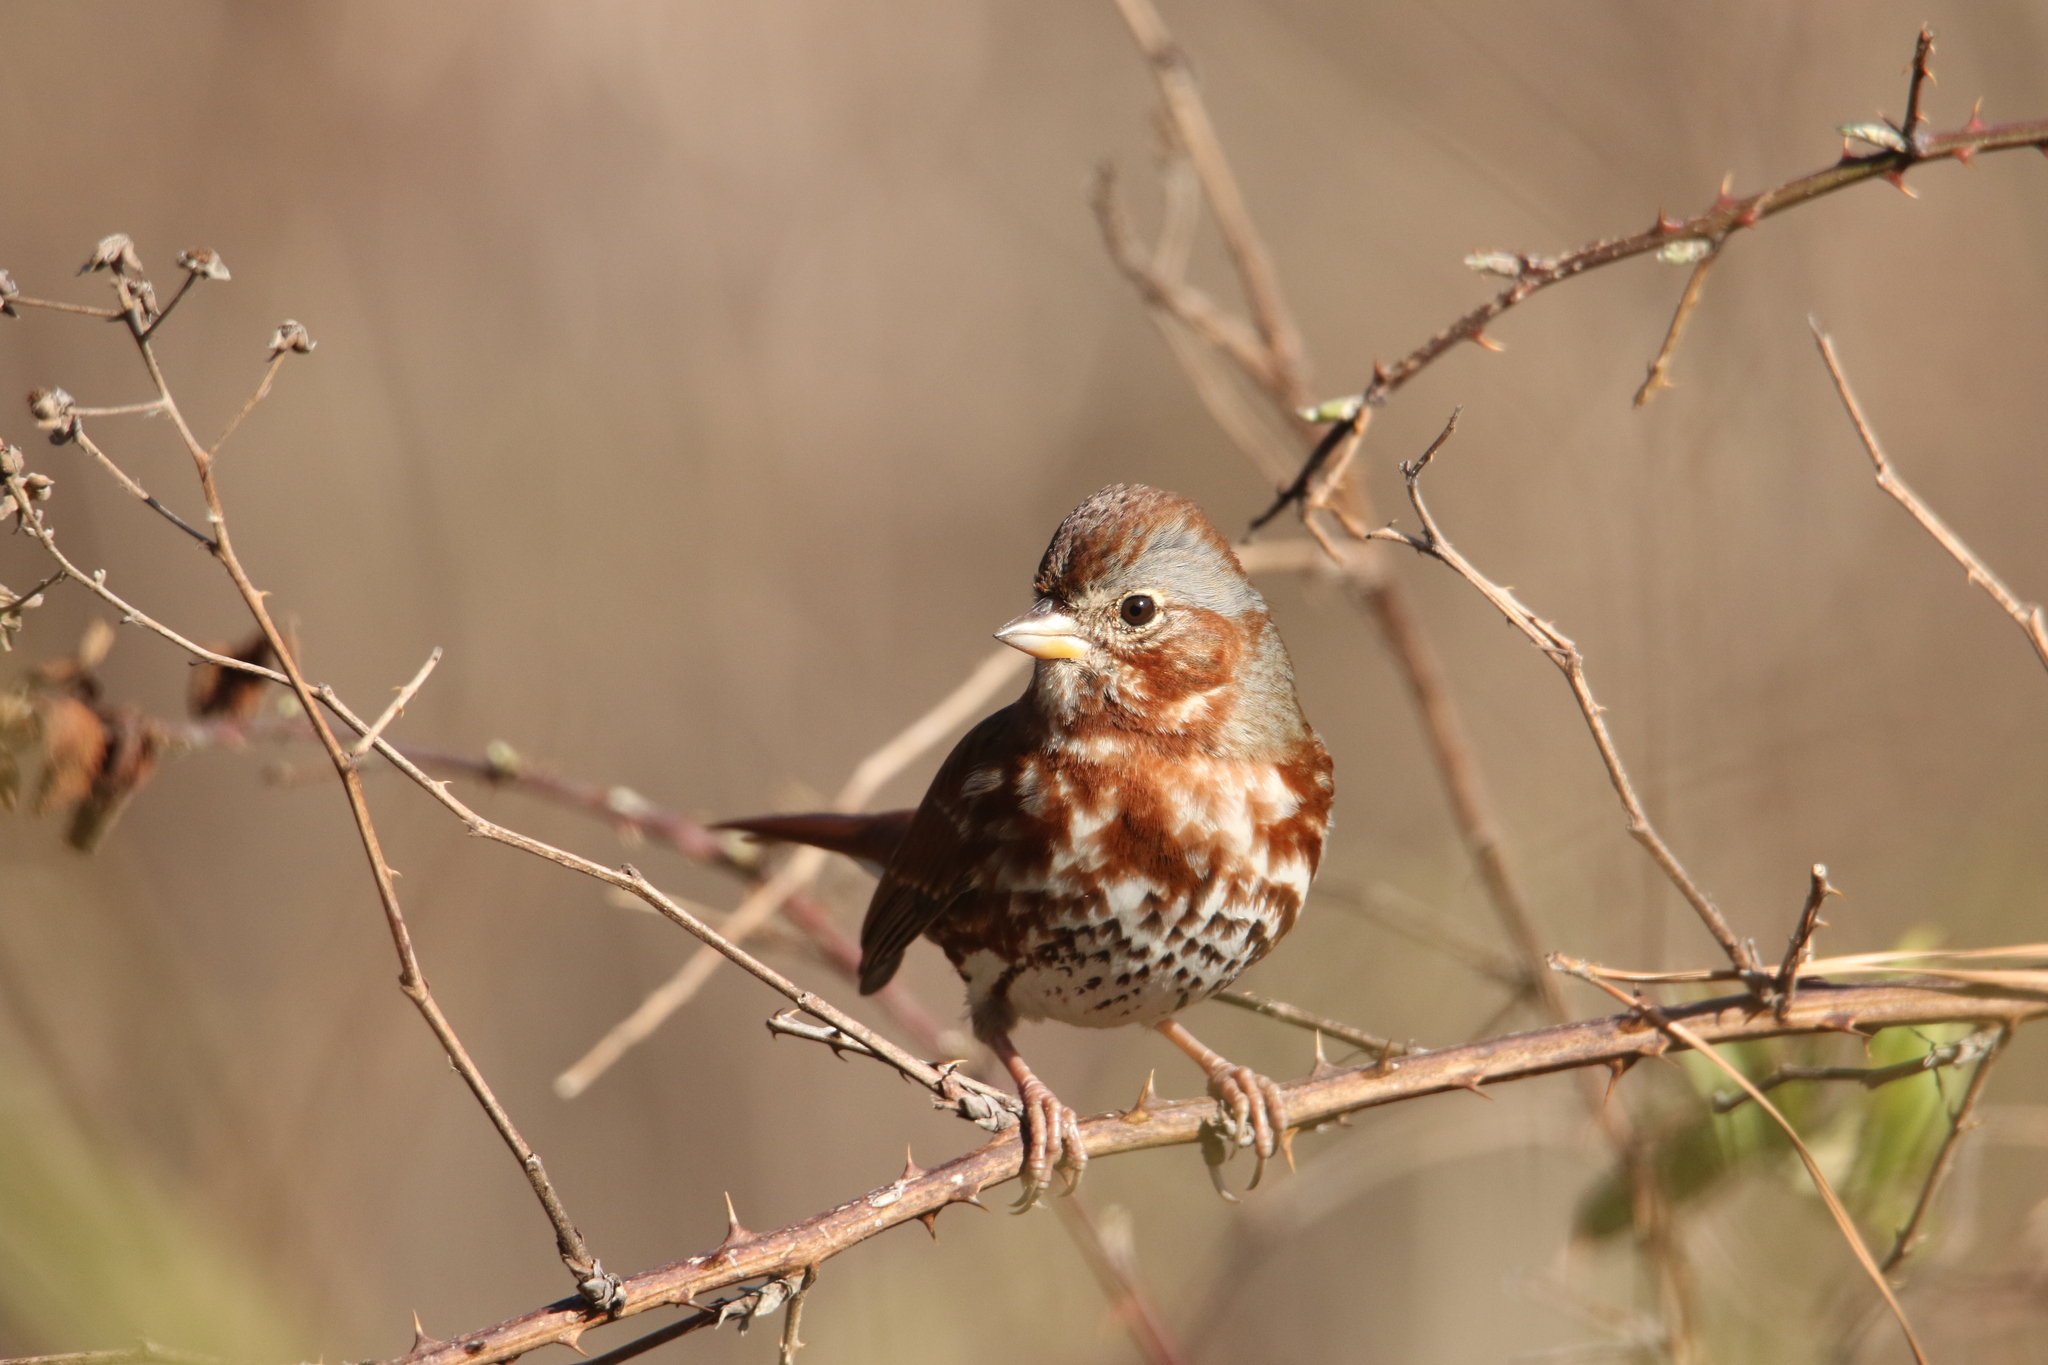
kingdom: Animalia
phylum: Chordata
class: Aves
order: Passeriformes
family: Passerellidae
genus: Passerella
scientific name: Passerella iliaca
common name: Fox sparrow
